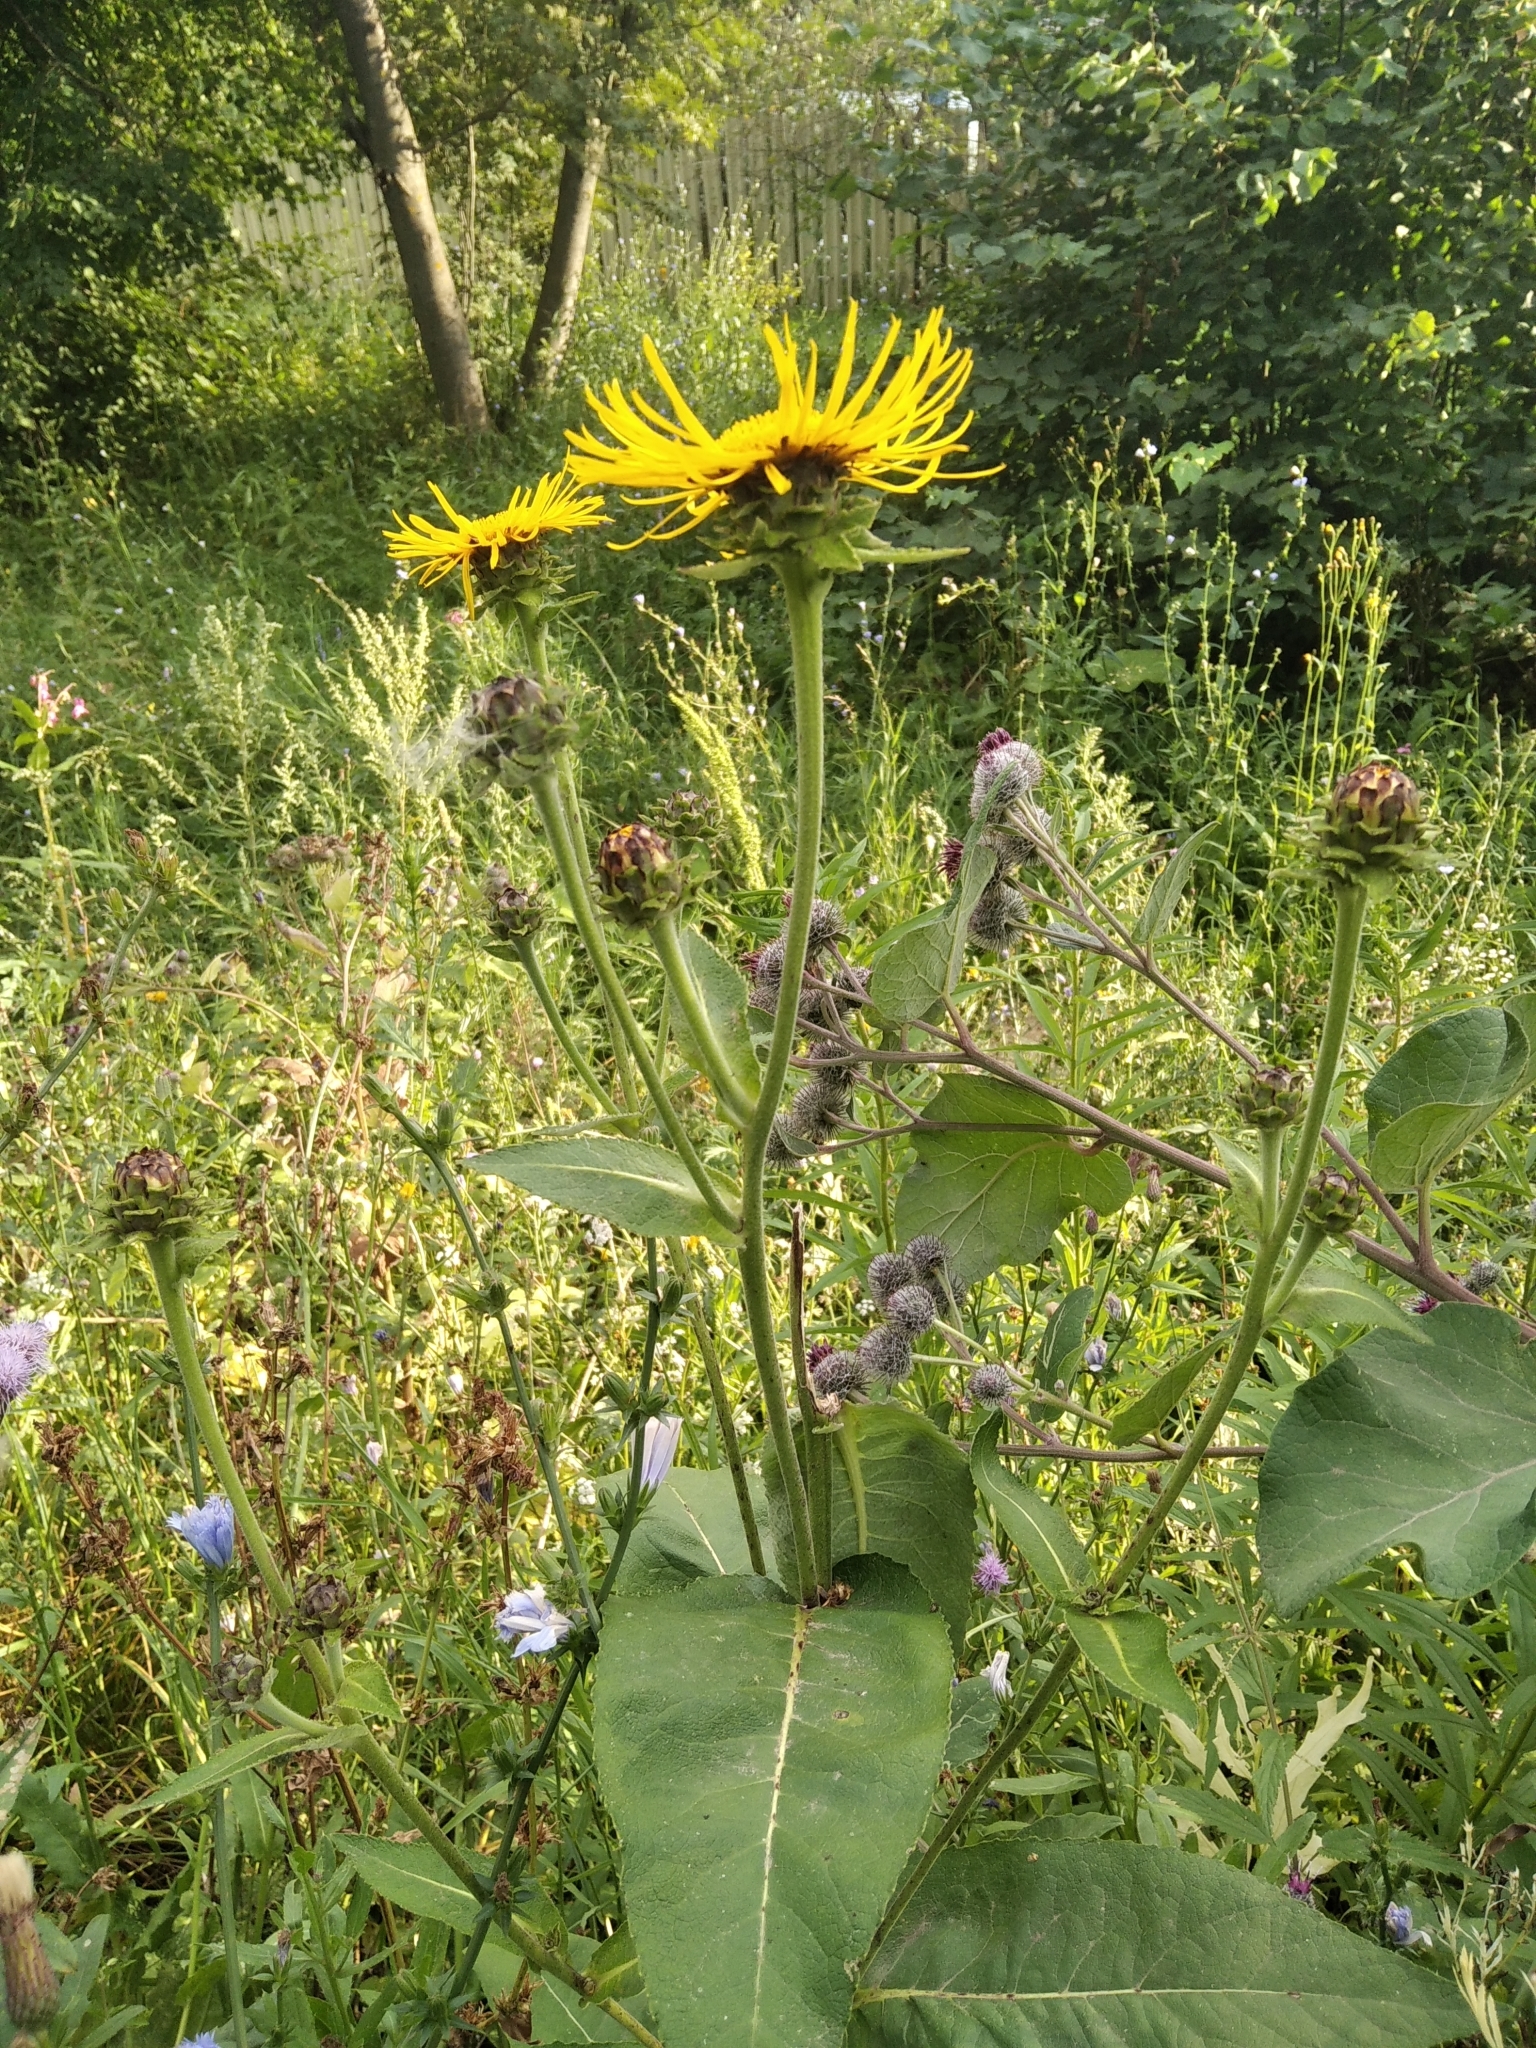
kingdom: Plantae
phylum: Tracheophyta
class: Magnoliopsida
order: Asterales
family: Asteraceae
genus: Inula
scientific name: Inula helenium
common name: Elecampane
